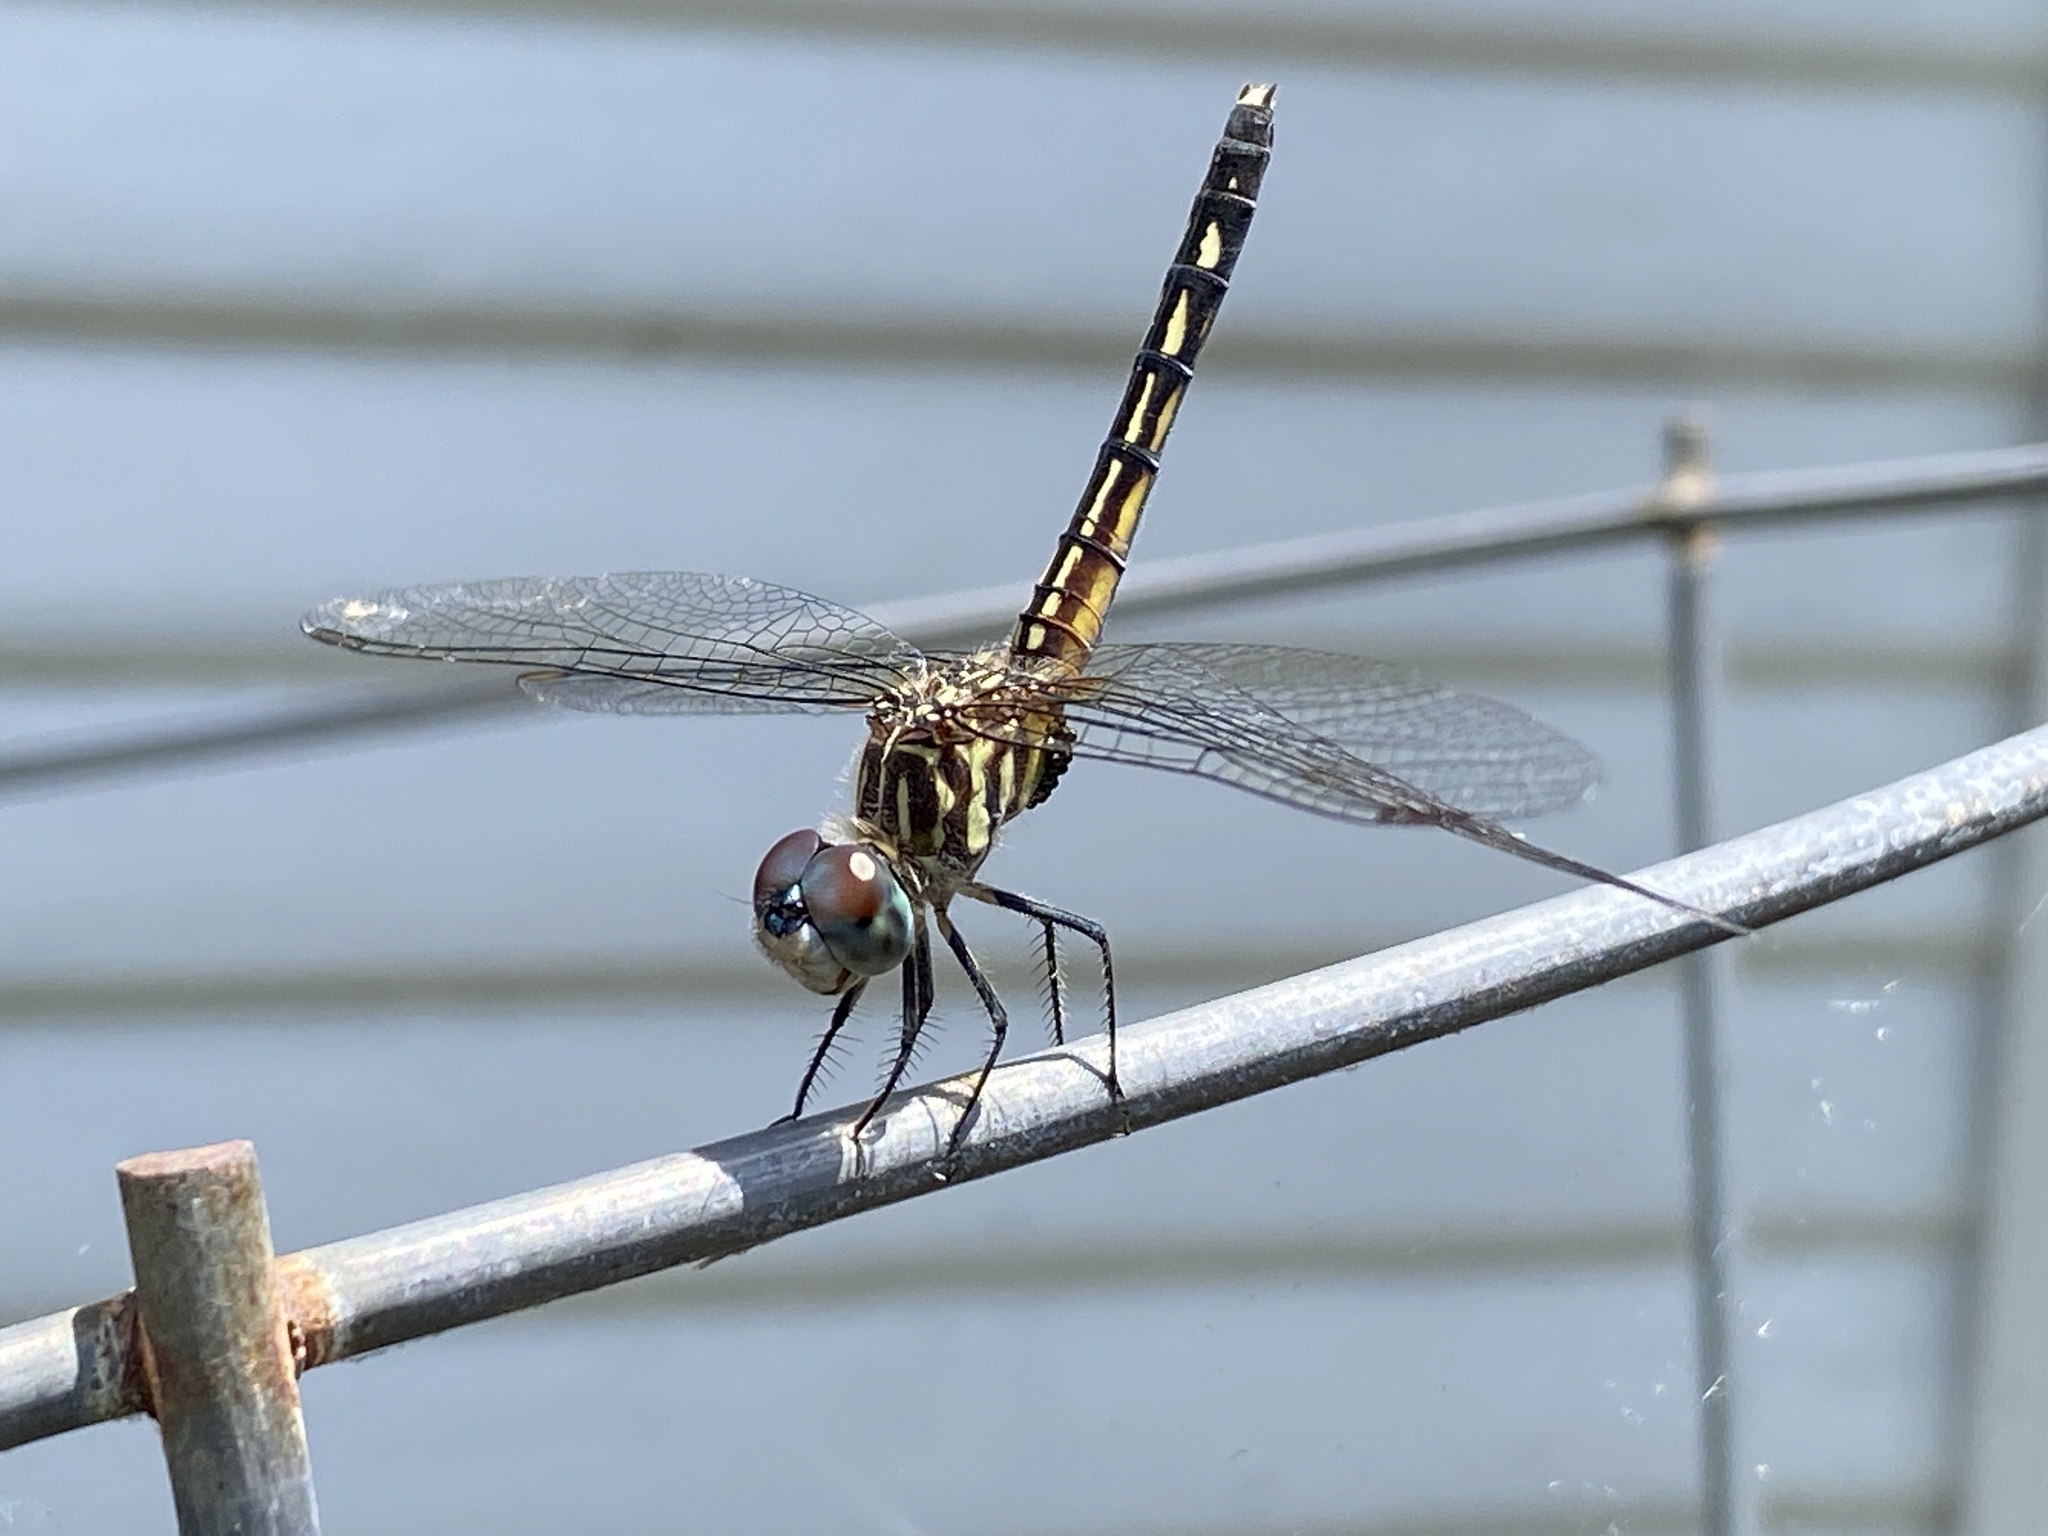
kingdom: Animalia
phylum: Arthropoda
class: Insecta
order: Odonata
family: Libellulidae
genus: Pachydiplax
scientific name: Pachydiplax longipennis
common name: Blue dasher
